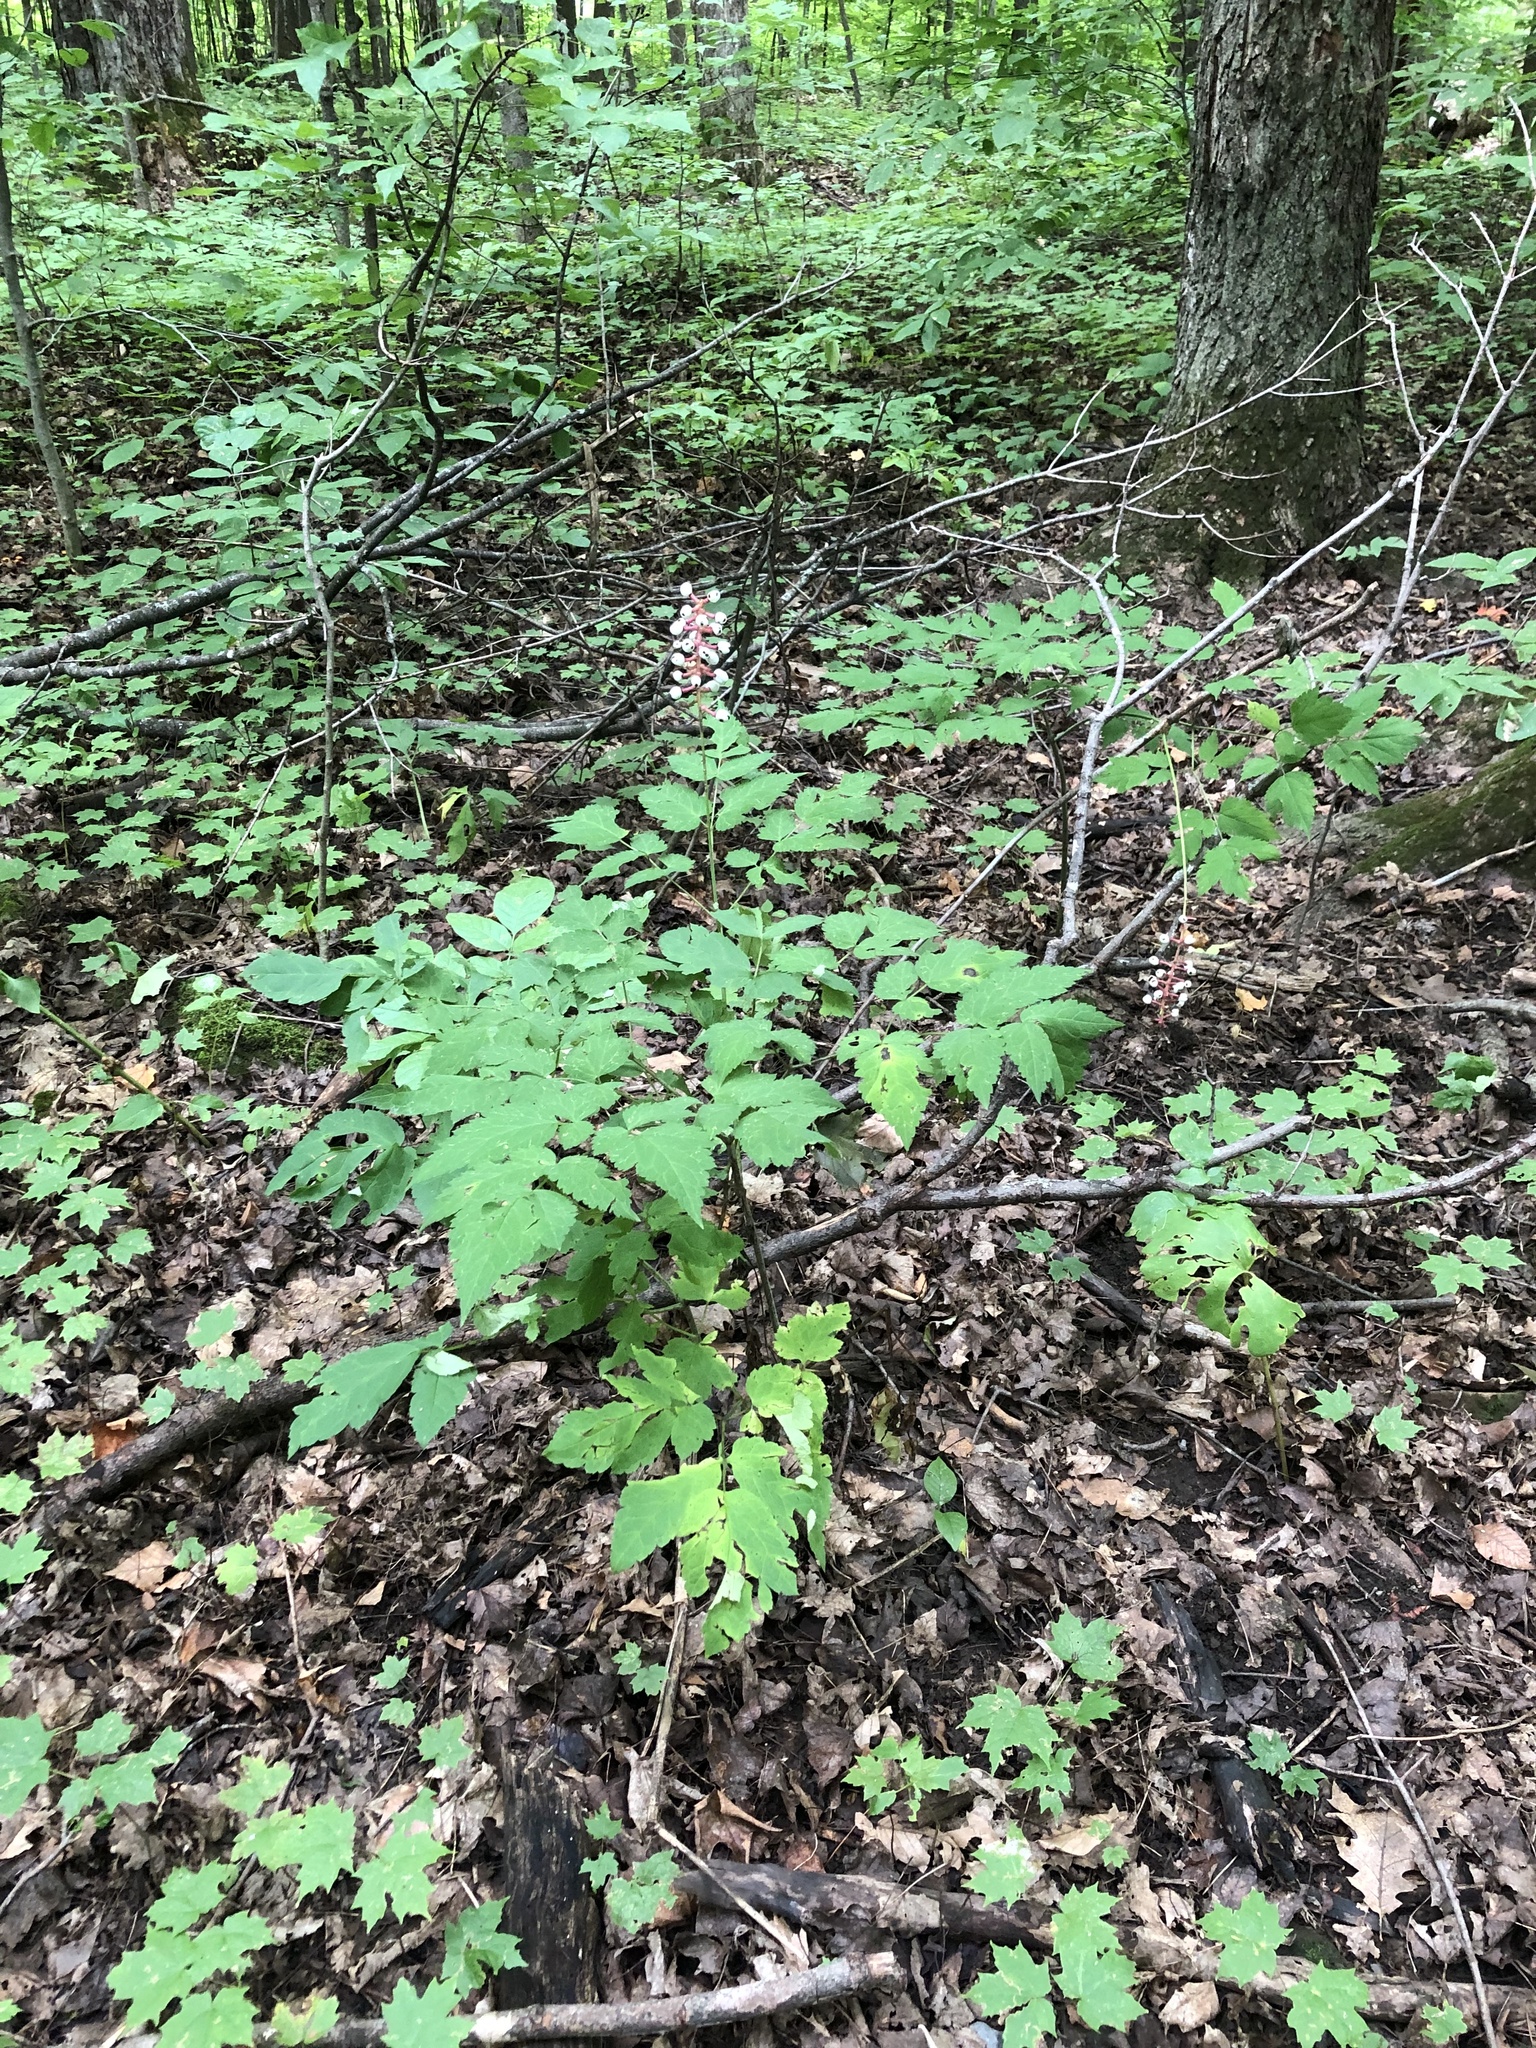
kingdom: Plantae
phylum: Tracheophyta
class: Magnoliopsida
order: Ranunculales
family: Ranunculaceae
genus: Actaea
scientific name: Actaea pachypoda
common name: Doll's-eyes
